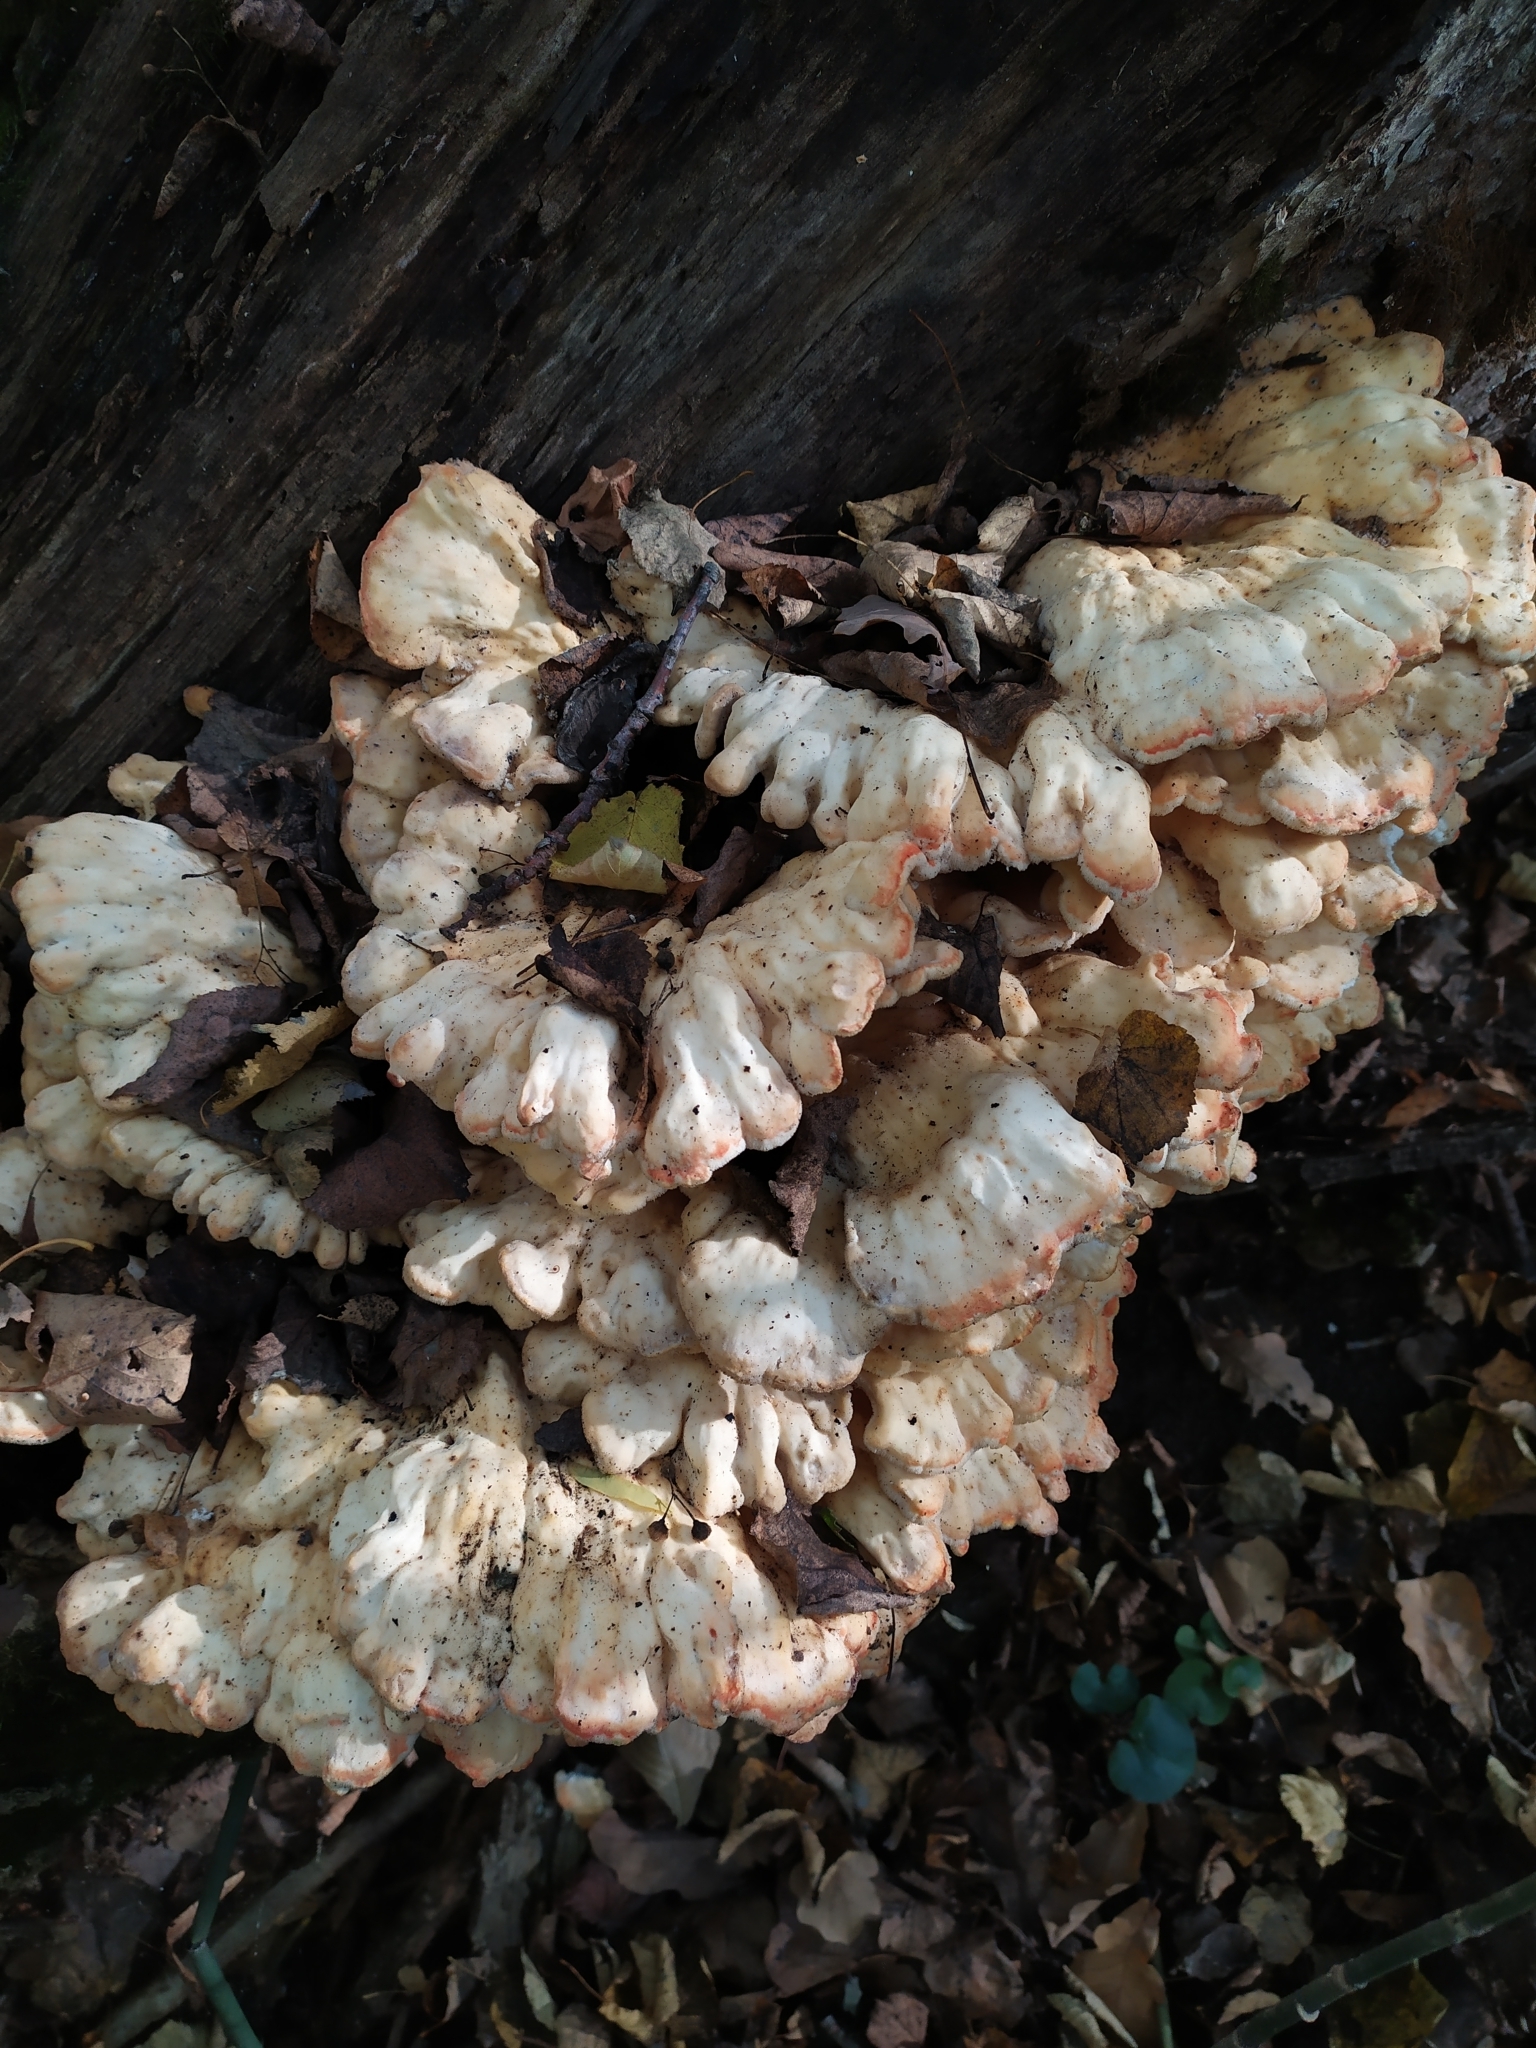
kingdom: Fungi
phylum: Basidiomycota
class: Agaricomycetes
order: Polyporales
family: Laetiporaceae
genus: Laetiporus
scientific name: Laetiporus sulphureus
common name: Chicken of the woods
